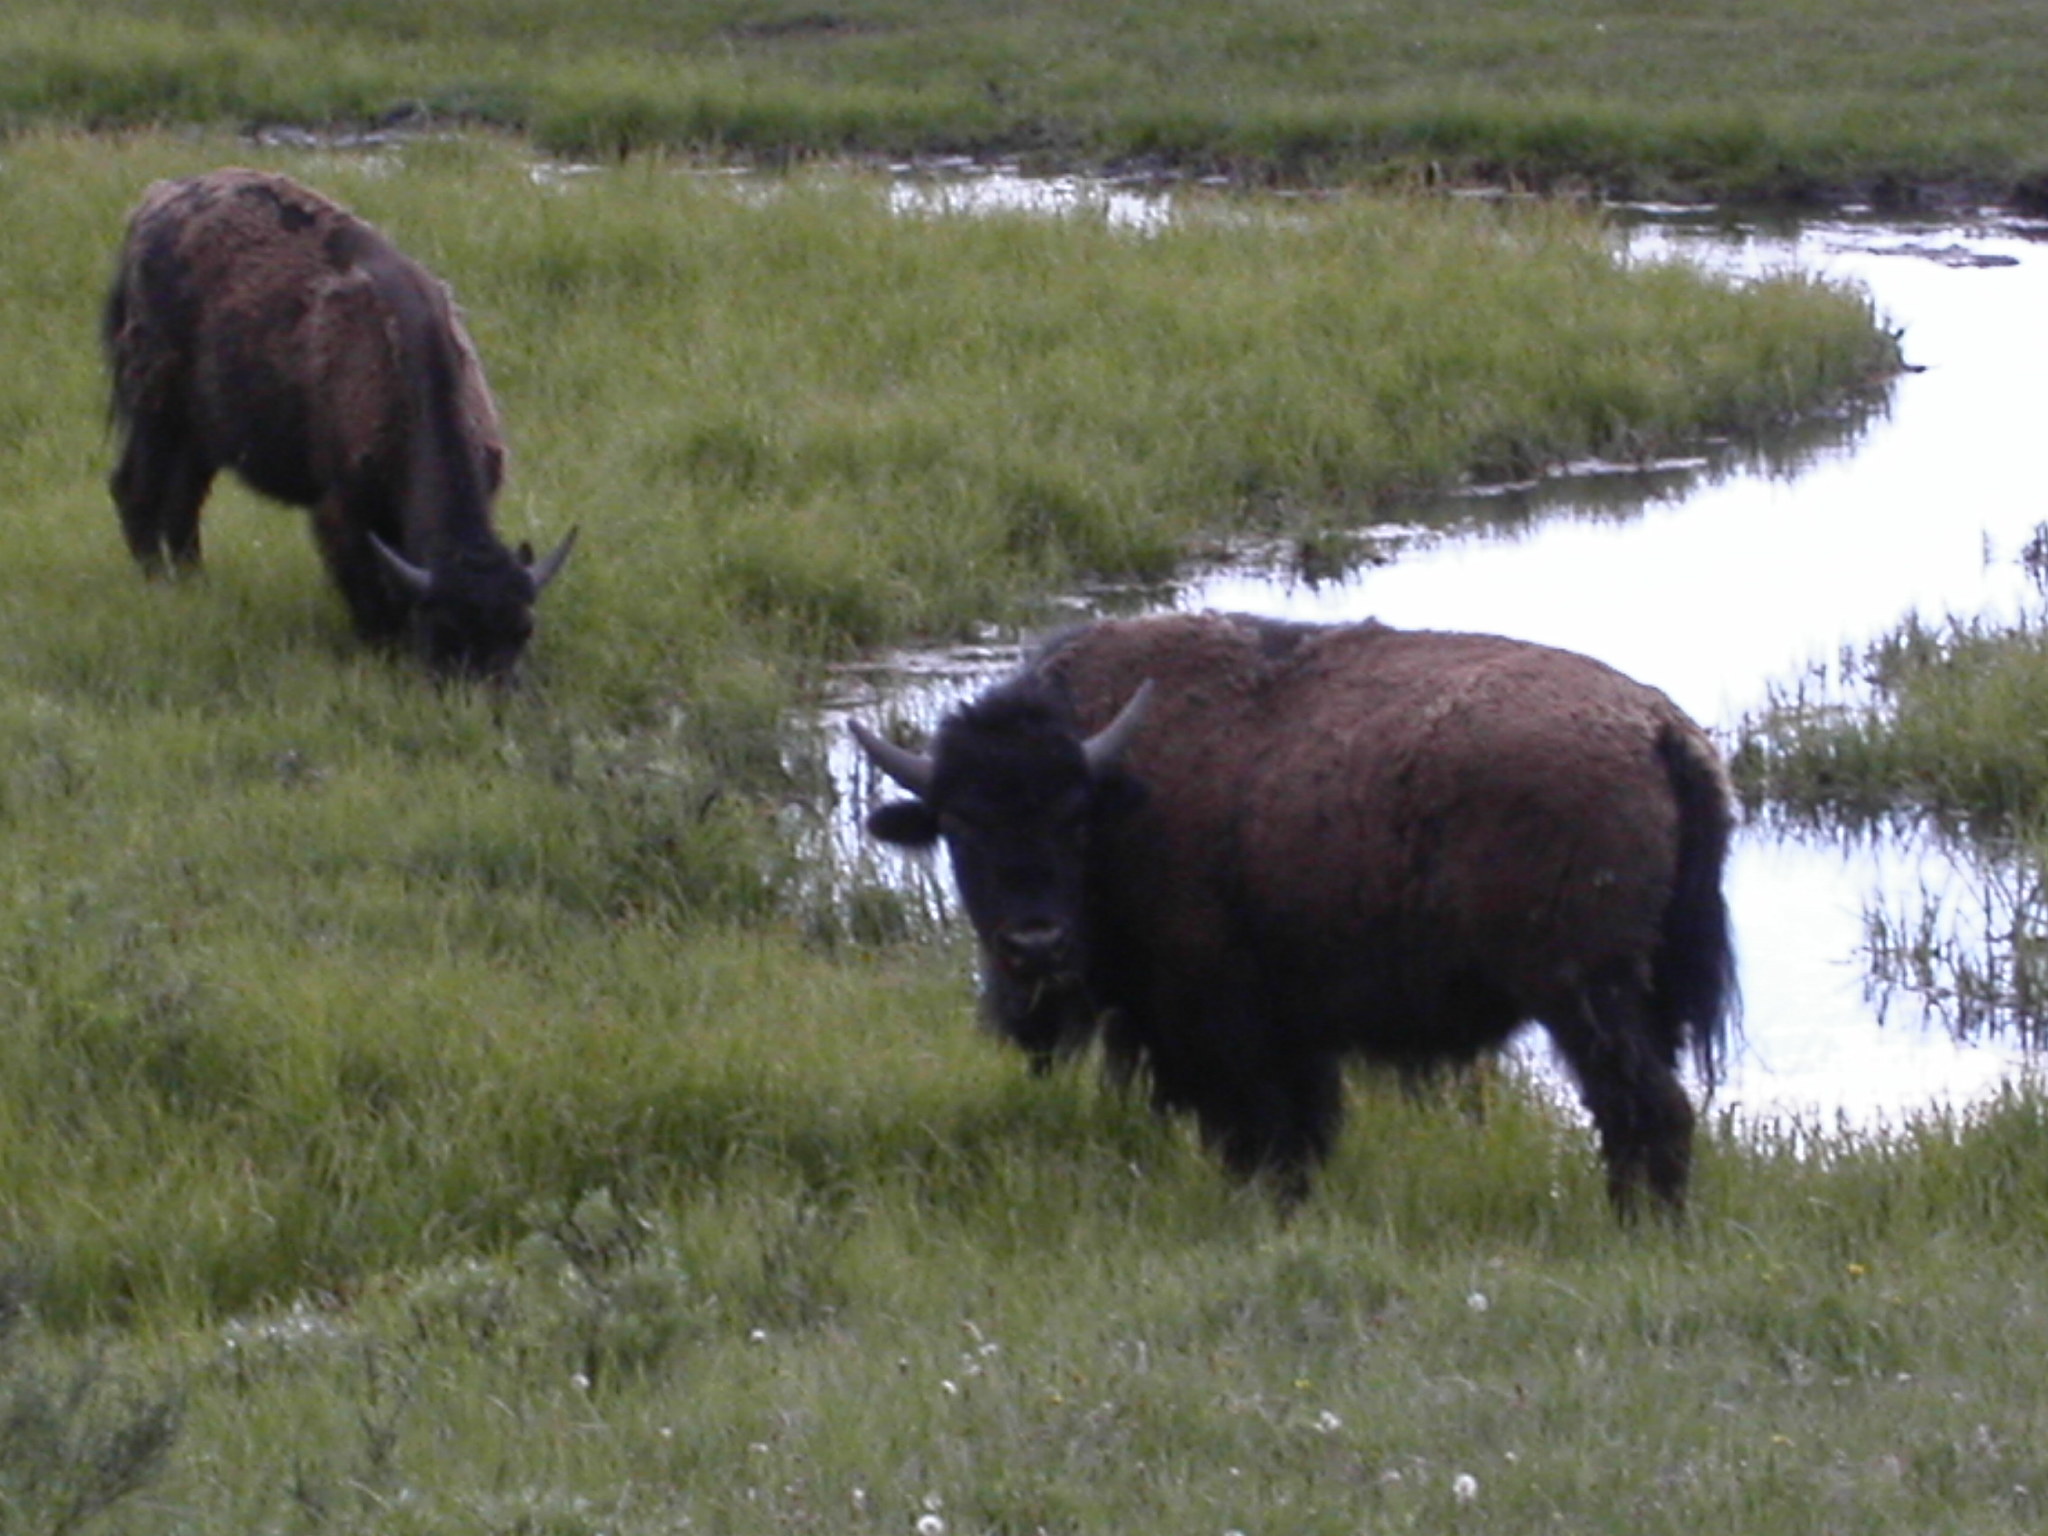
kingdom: Animalia
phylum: Chordata
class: Mammalia
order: Artiodactyla
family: Bovidae
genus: Bison
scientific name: Bison bison
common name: American bison
